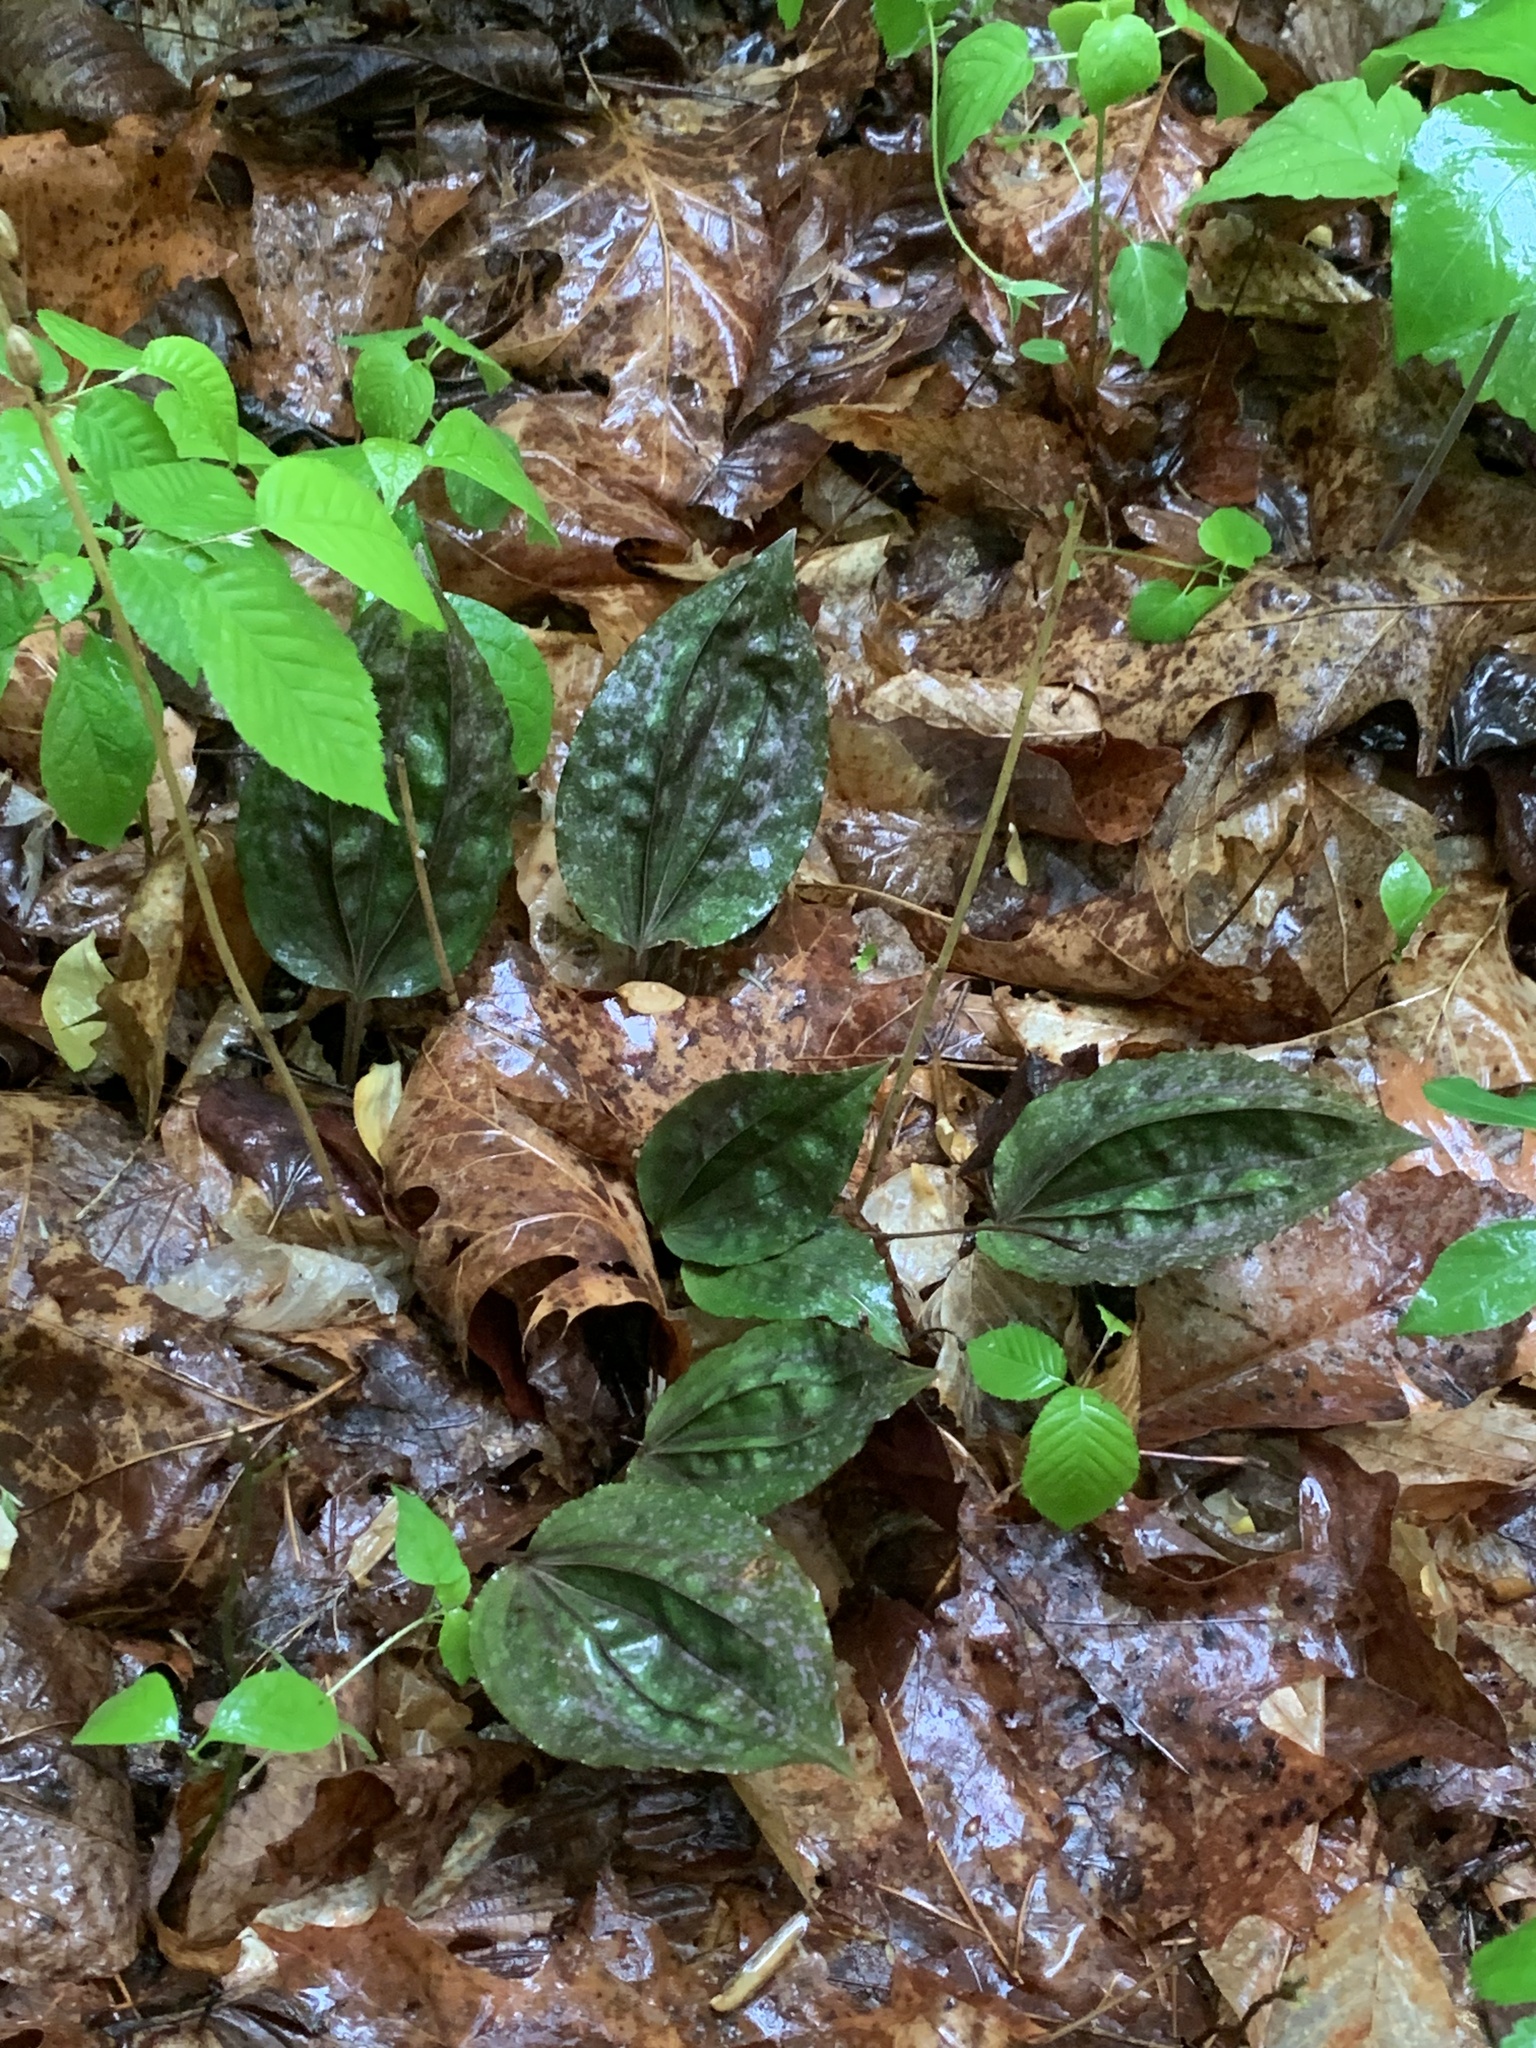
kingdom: Plantae
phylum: Tracheophyta
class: Liliopsida
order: Asparagales
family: Orchidaceae
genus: Tipularia
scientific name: Tipularia discolor
